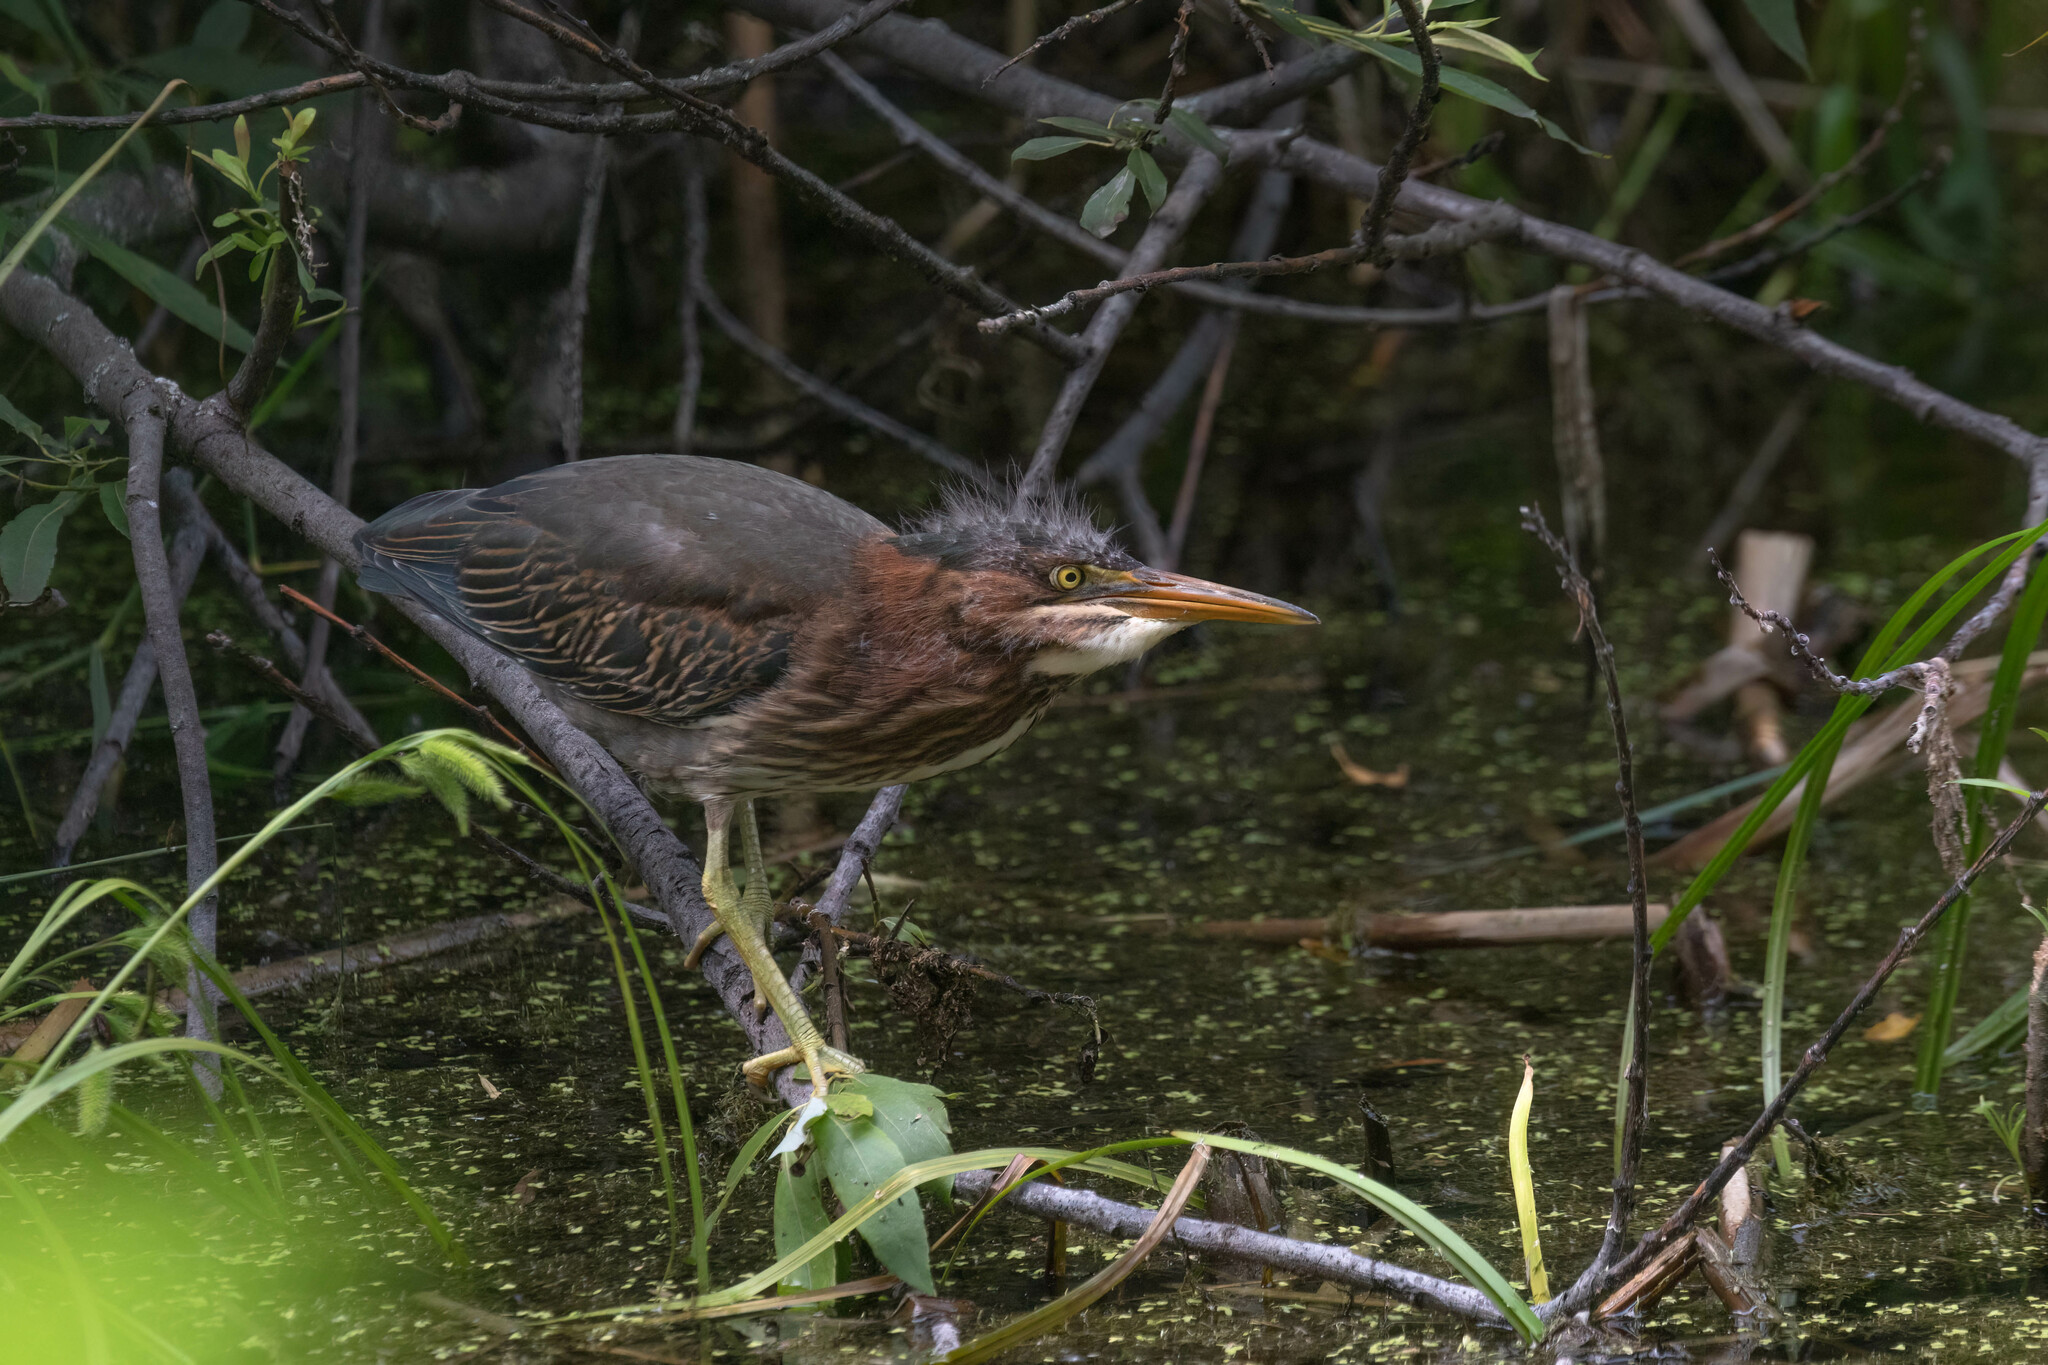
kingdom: Animalia
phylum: Chordata
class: Aves
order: Pelecaniformes
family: Ardeidae
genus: Butorides
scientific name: Butorides virescens
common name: Green heron
